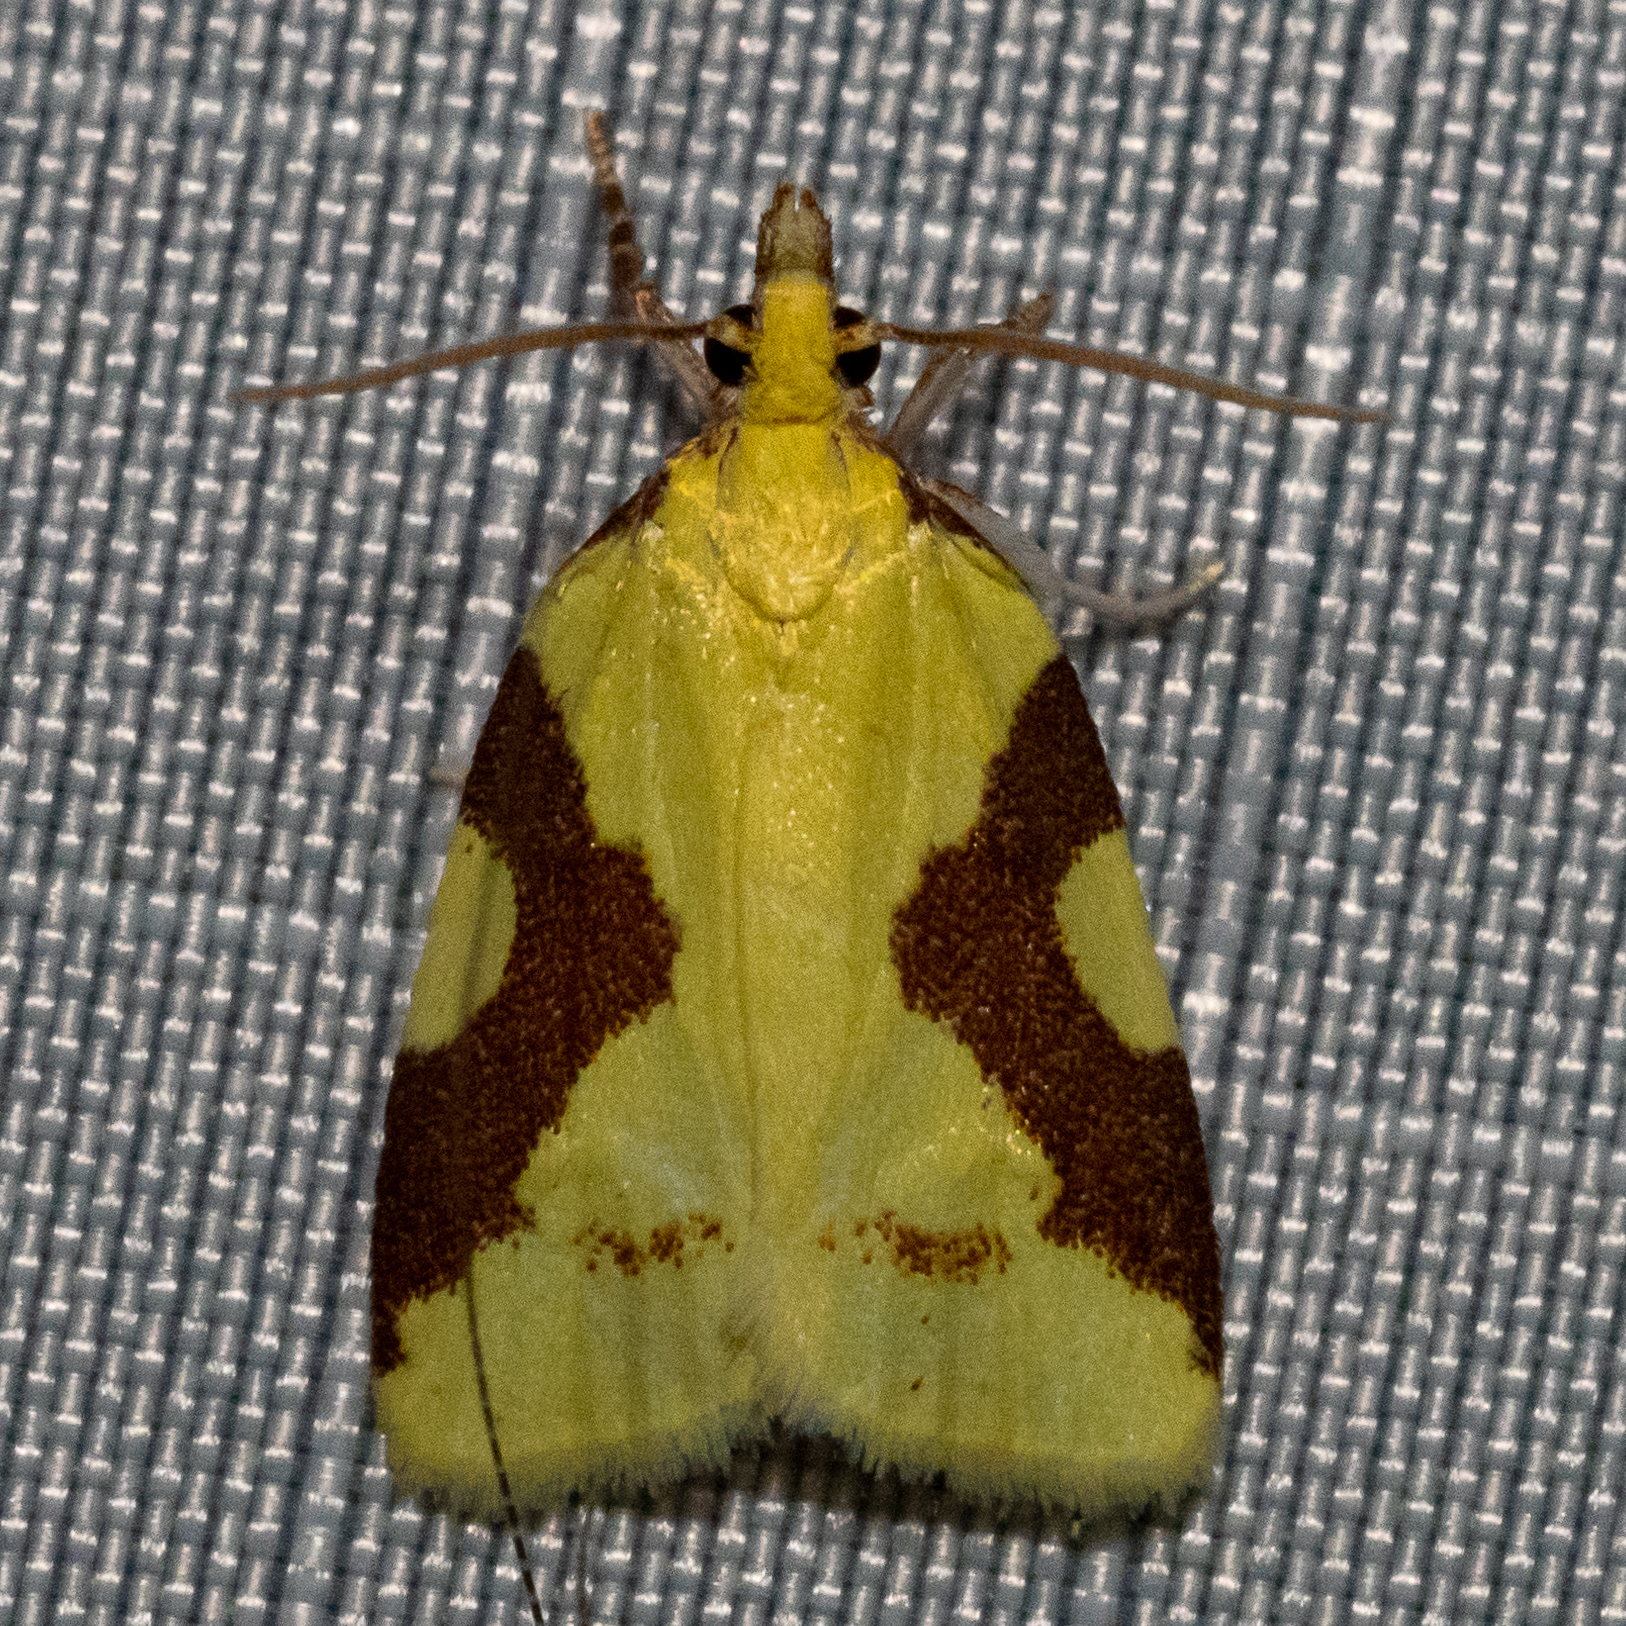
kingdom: Animalia
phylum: Arthropoda
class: Insecta
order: Lepidoptera
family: Tortricidae
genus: Cenopis
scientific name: Cenopis niveana
